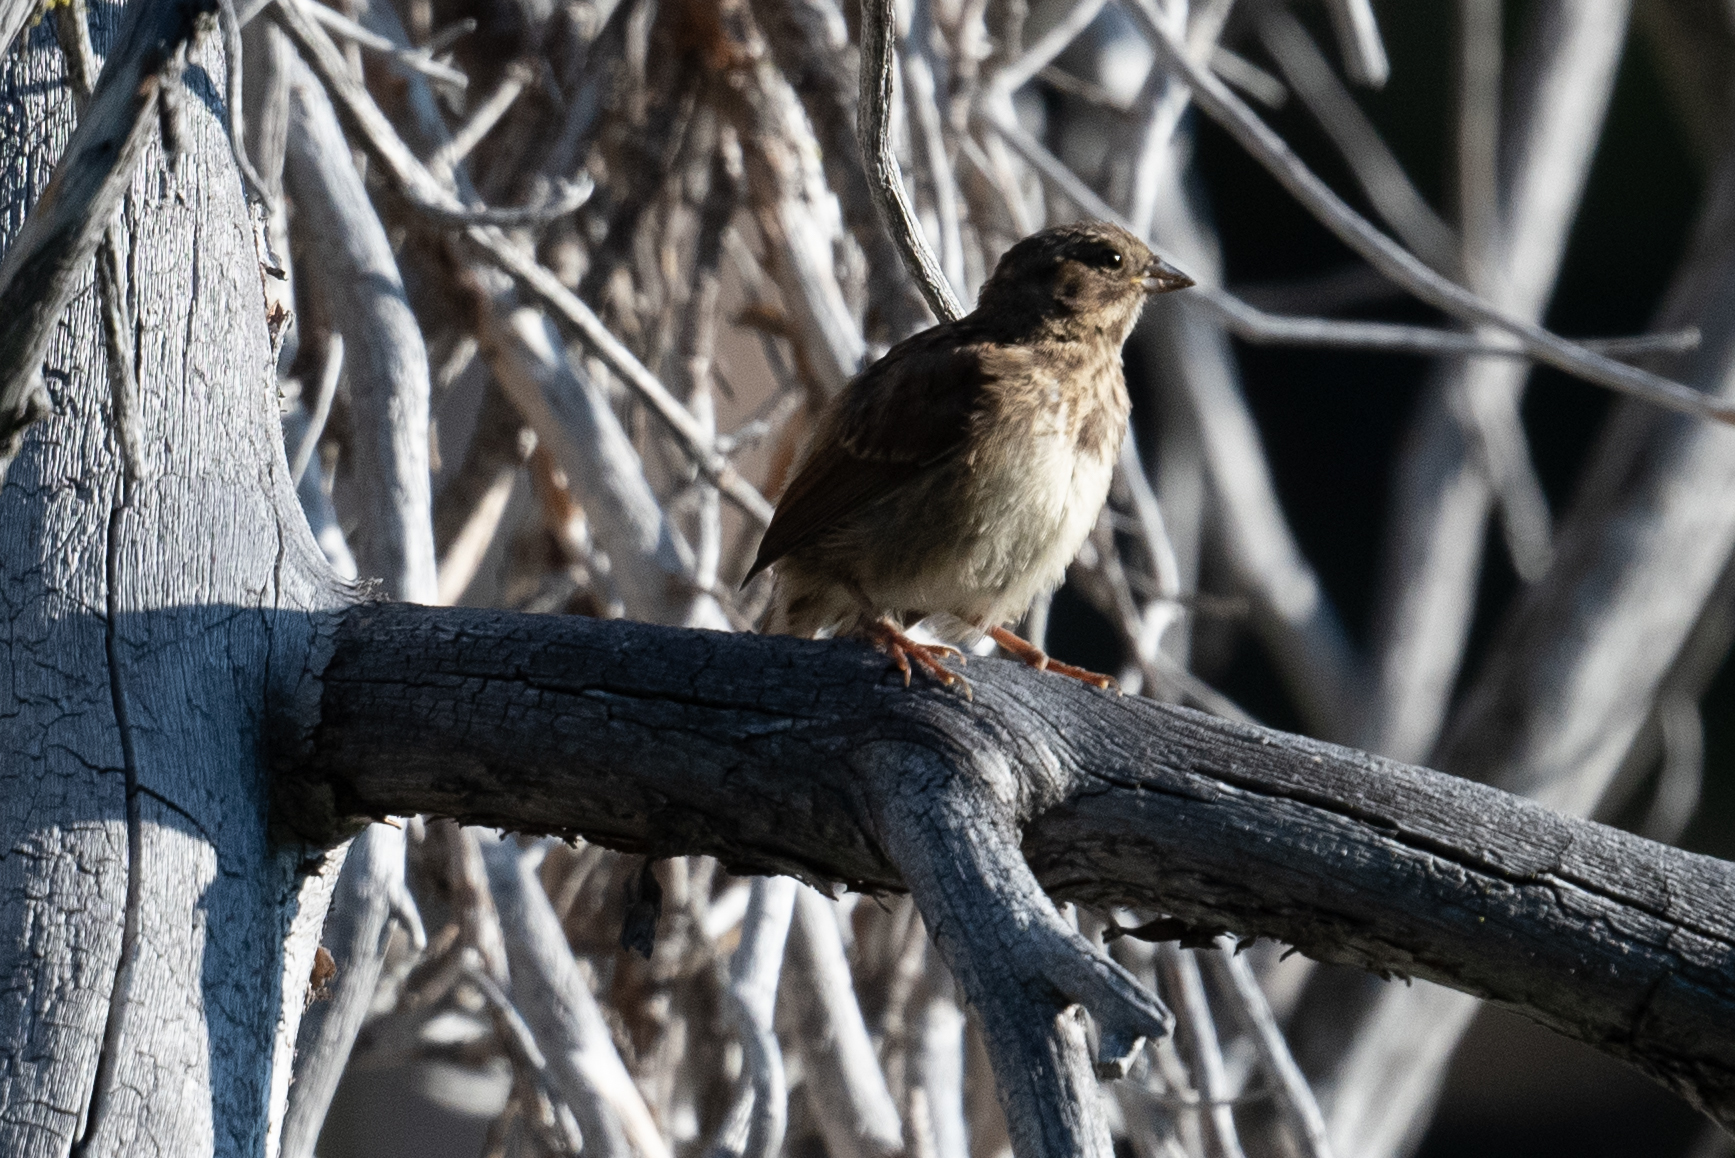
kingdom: Animalia
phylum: Chordata
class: Aves
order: Passeriformes
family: Passerellidae
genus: Melospiza
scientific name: Melospiza melodia
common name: Song sparrow
